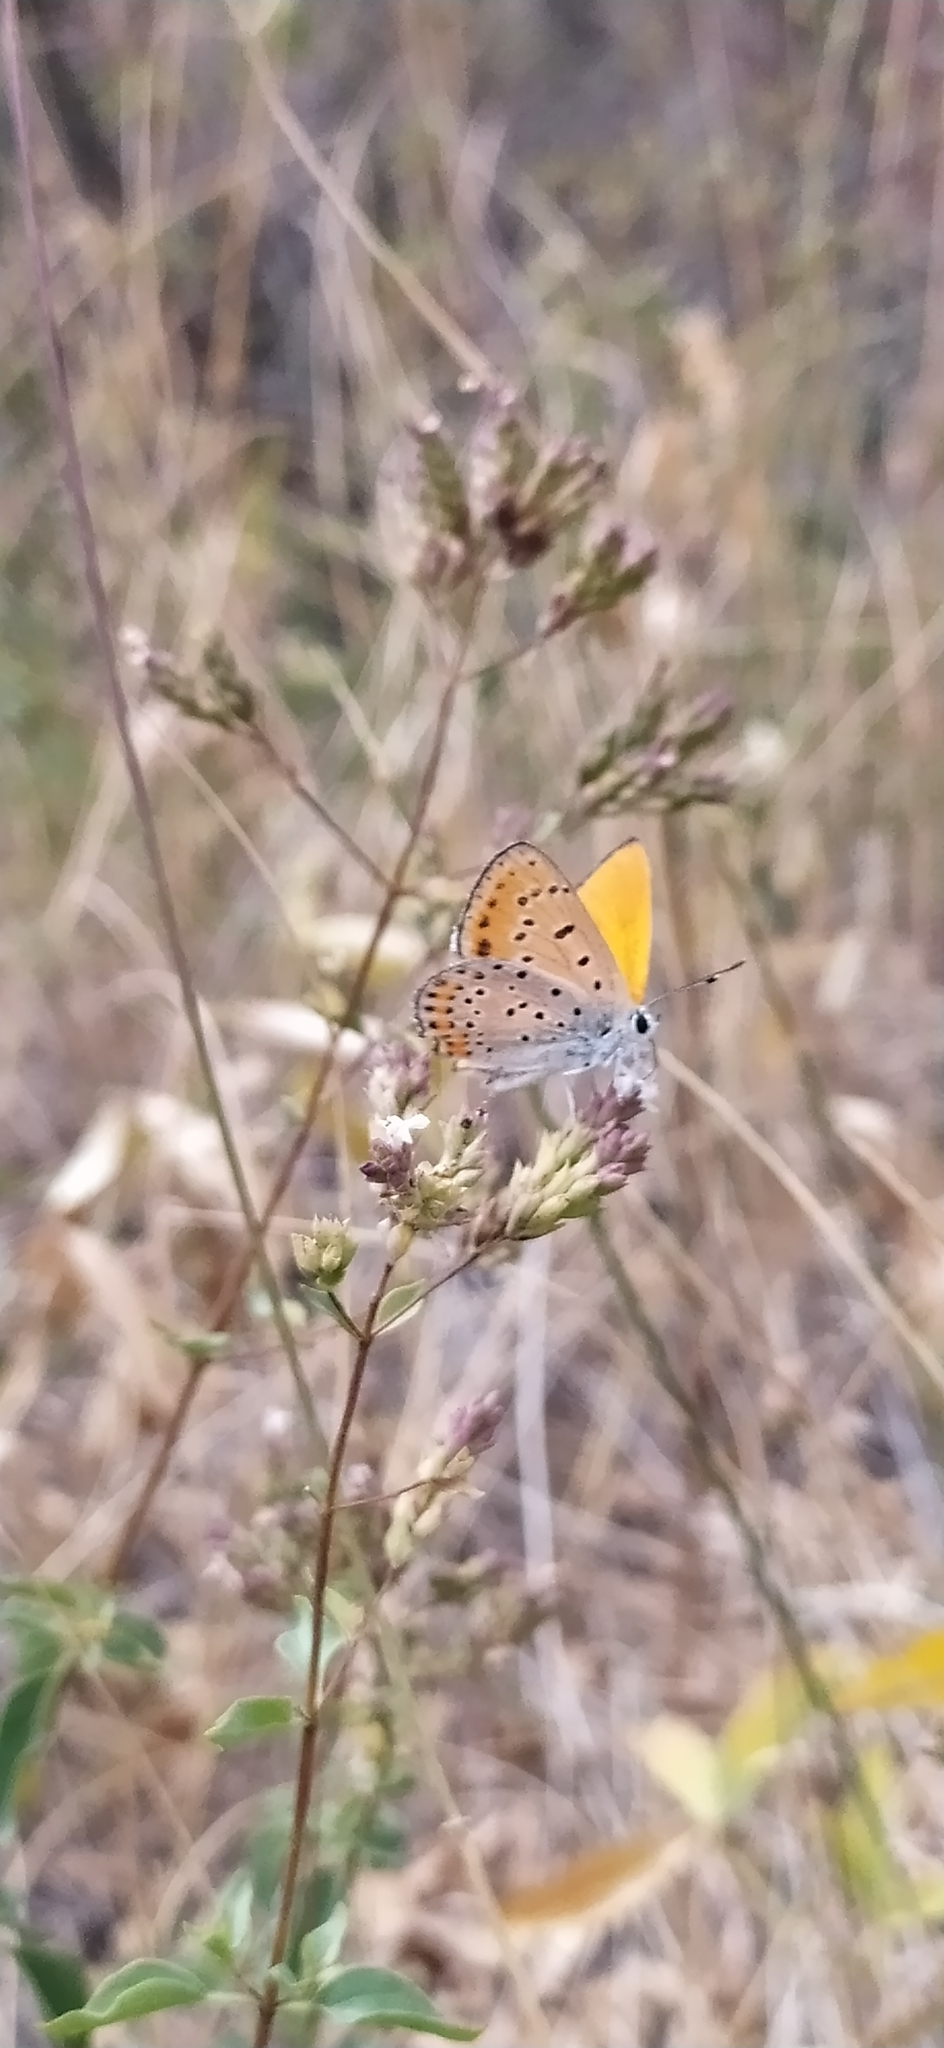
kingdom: Animalia
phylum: Arthropoda
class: Insecta
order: Lepidoptera
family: Lycaenidae
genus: Thersamonia
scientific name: Thersamonia thersamon
